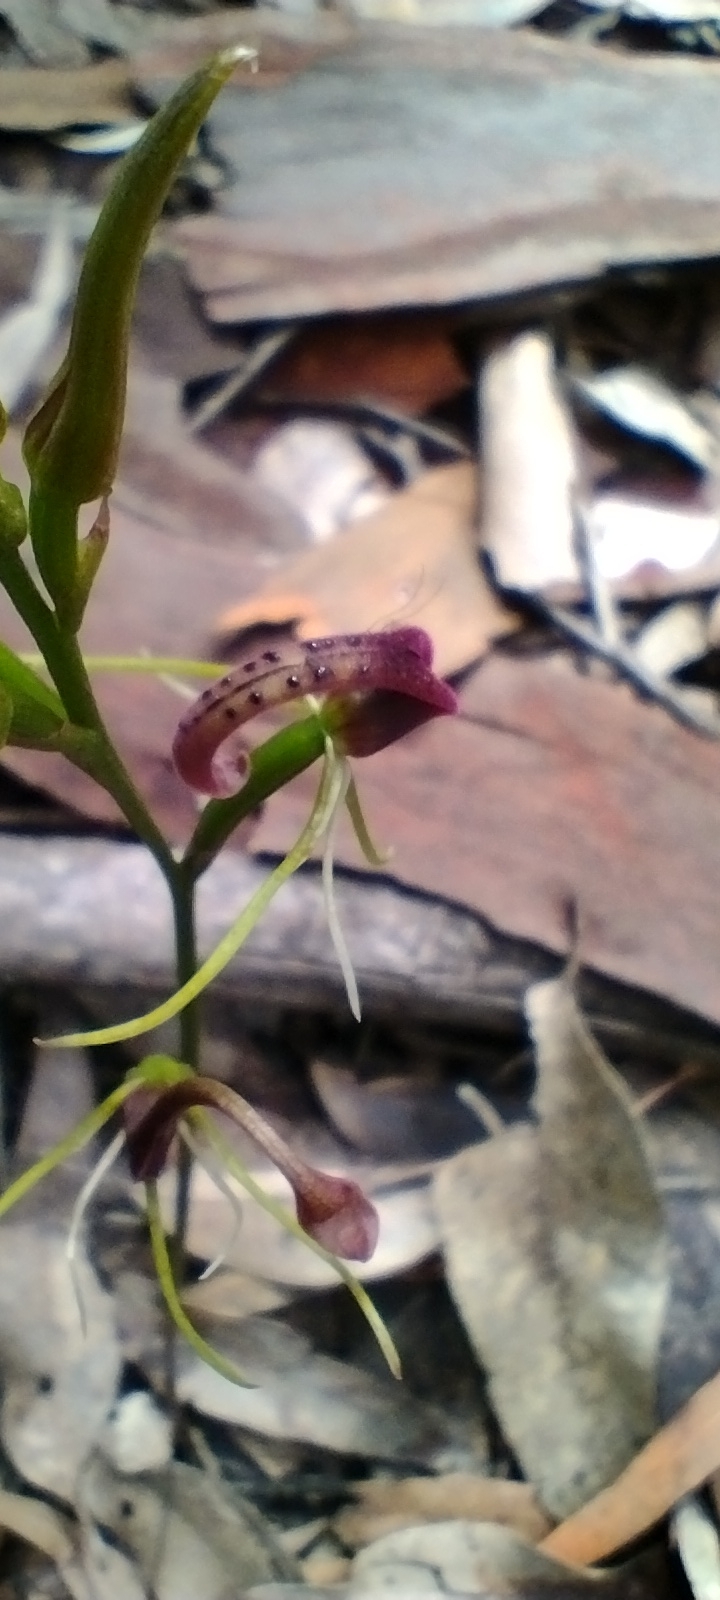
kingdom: Plantae
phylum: Tracheophyta
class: Liliopsida
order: Asparagales
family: Orchidaceae
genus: Cryptostylis
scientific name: Cryptostylis leptochila
